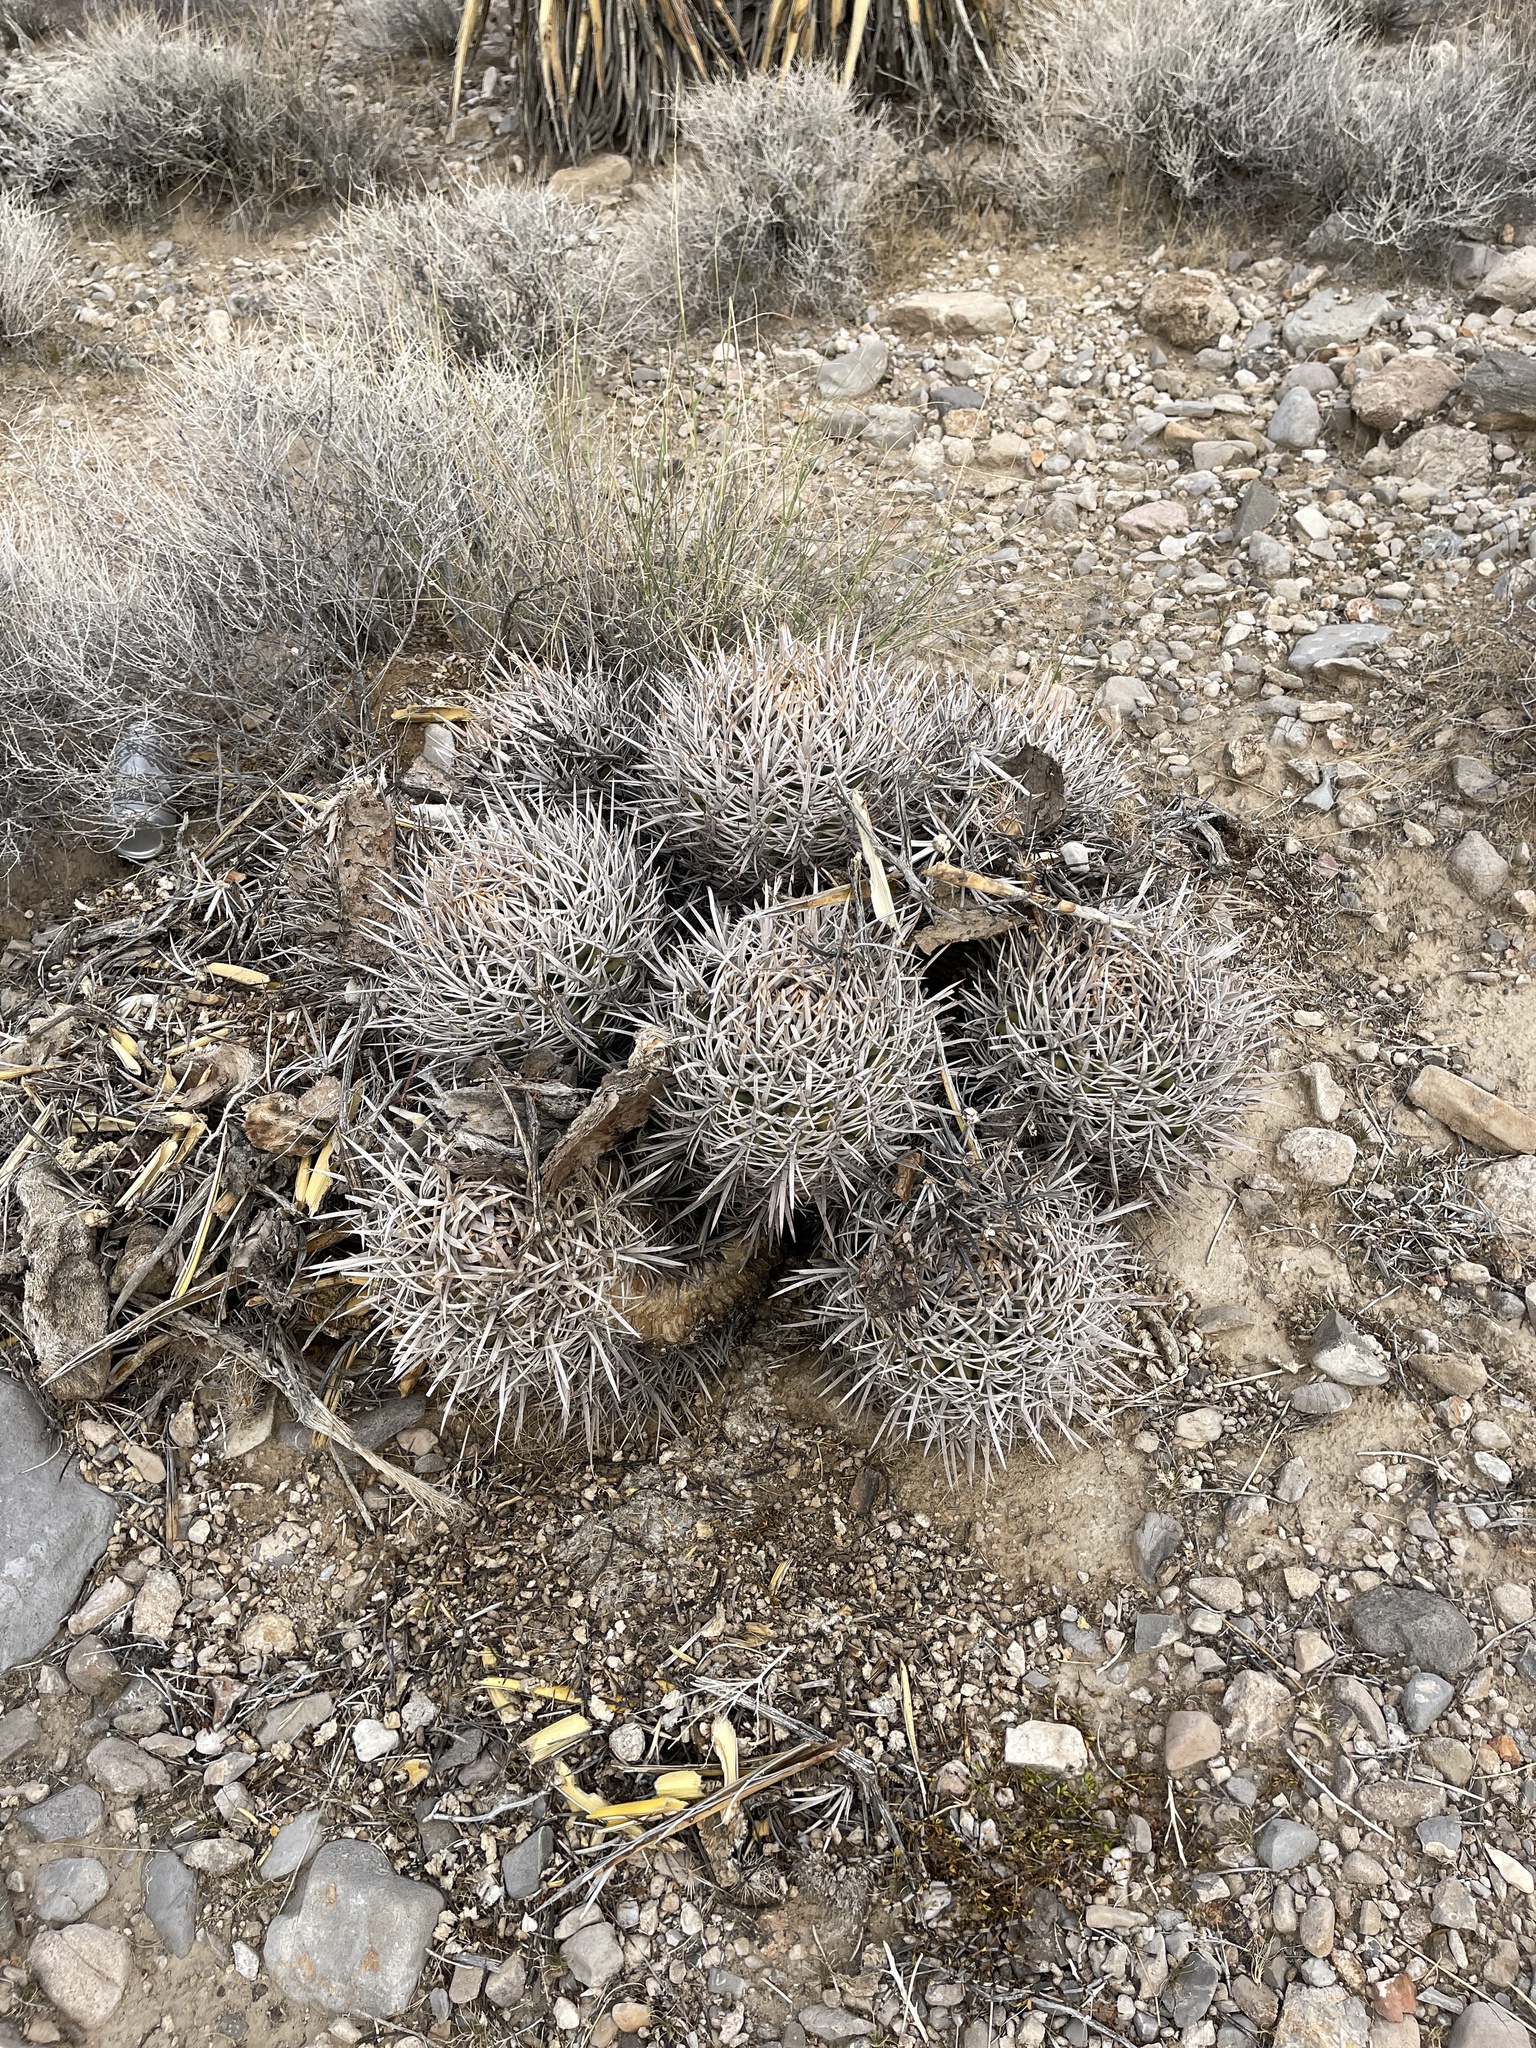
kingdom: Plantae
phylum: Tracheophyta
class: Magnoliopsida
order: Caryophyllales
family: Cactaceae
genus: Echinocactus
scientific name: Echinocactus polycephalus
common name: Cottontop cactus
